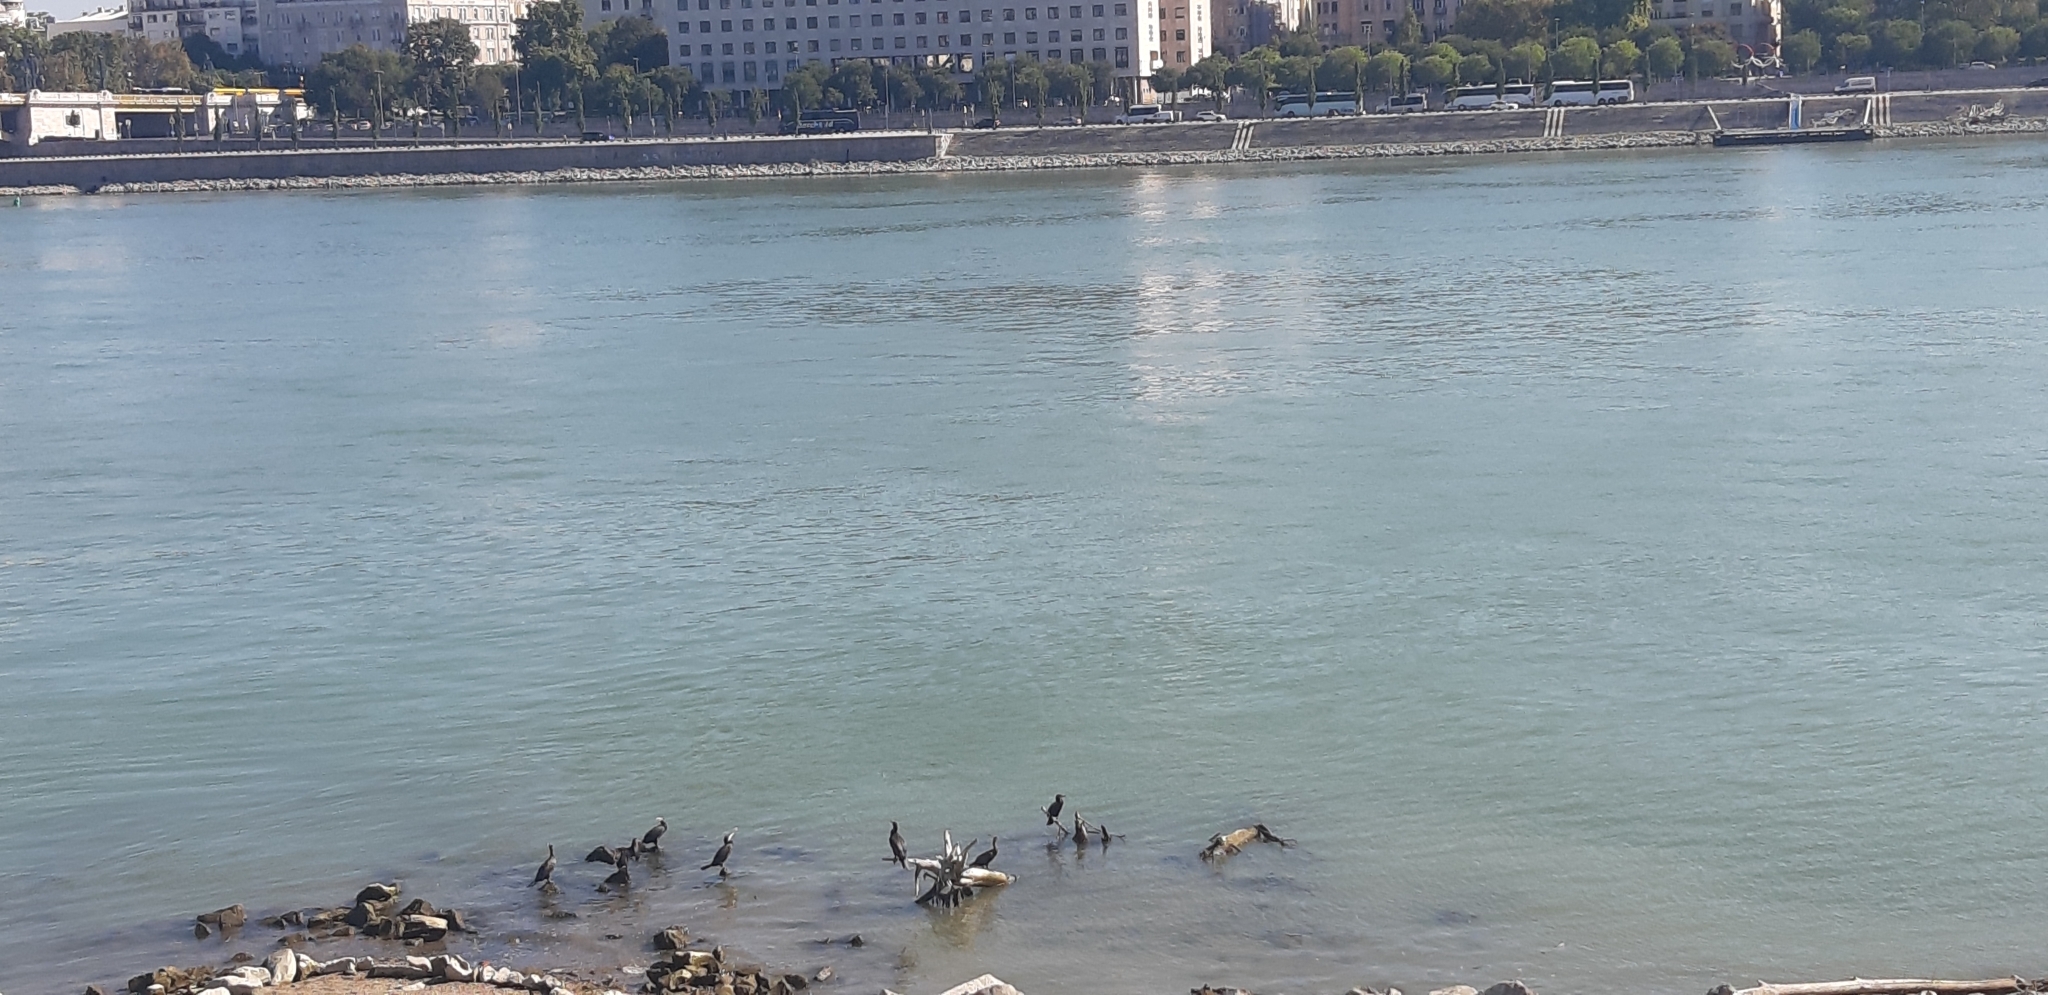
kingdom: Animalia
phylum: Chordata
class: Aves
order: Suliformes
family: Phalacrocoracidae
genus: Phalacrocorax
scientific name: Phalacrocorax carbo
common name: Great cormorant
